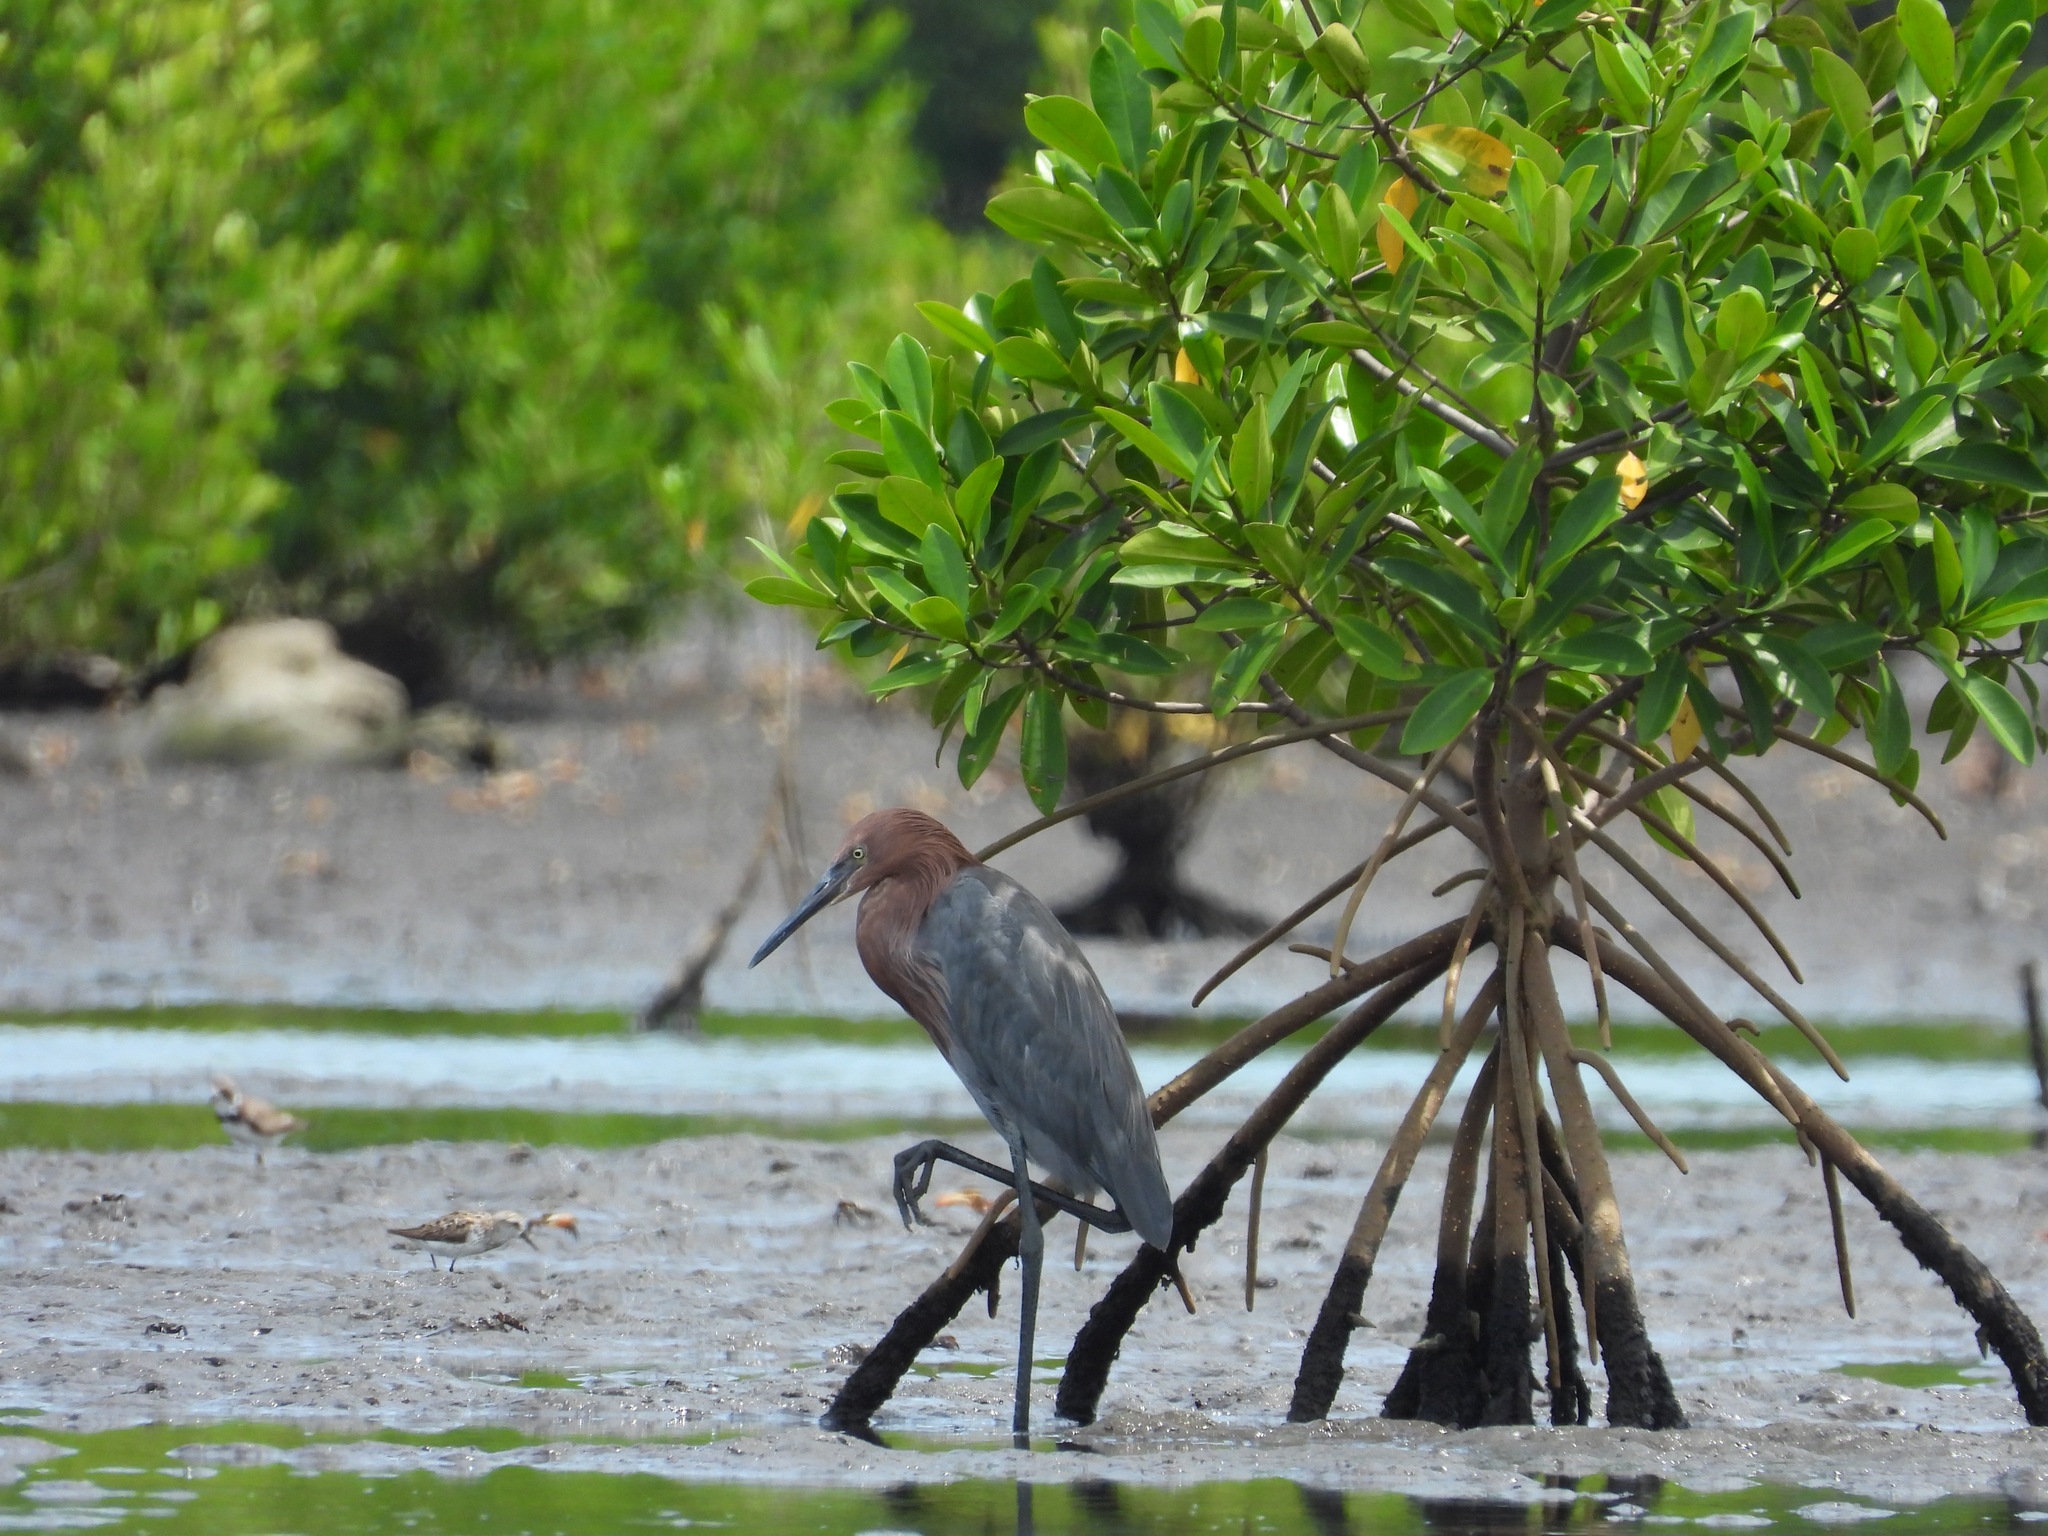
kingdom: Animalia
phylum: Chordata
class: Aves
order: Pelecaniformes
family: Ardeidae
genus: Egretta
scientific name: Egretta rufescens
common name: Reddish egret
